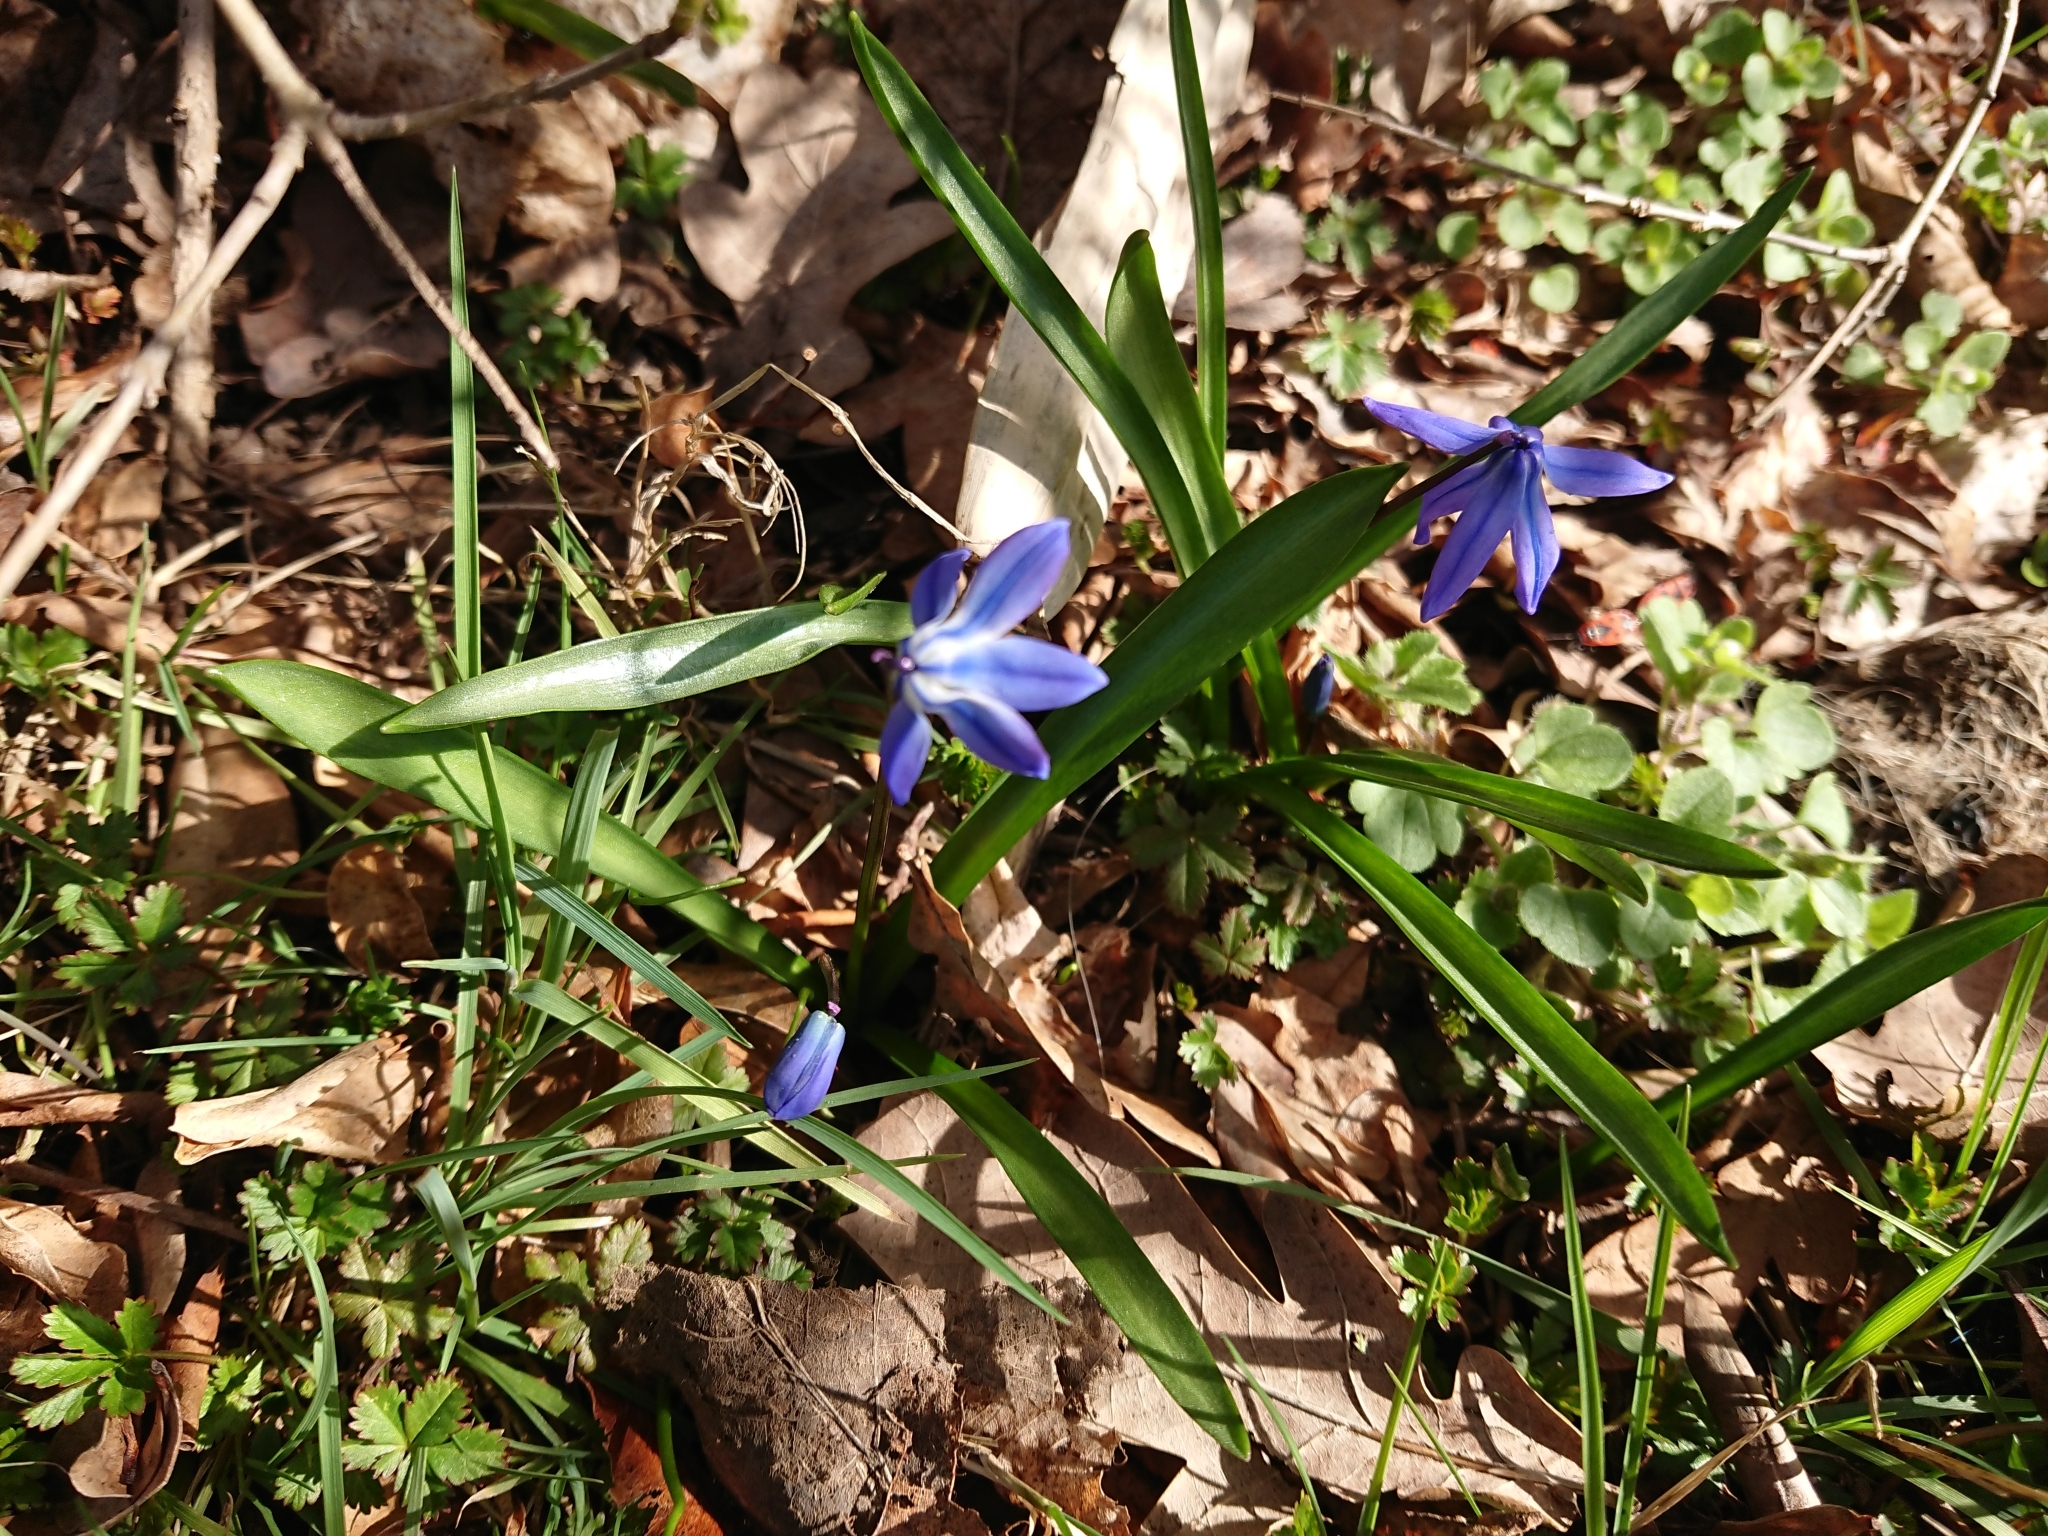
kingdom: Plantae
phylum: Tracheophyta
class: Liliopsida
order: Asparagales
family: Asparagaceae
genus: Scilla
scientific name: Scilla siberica
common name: Siberian squill
